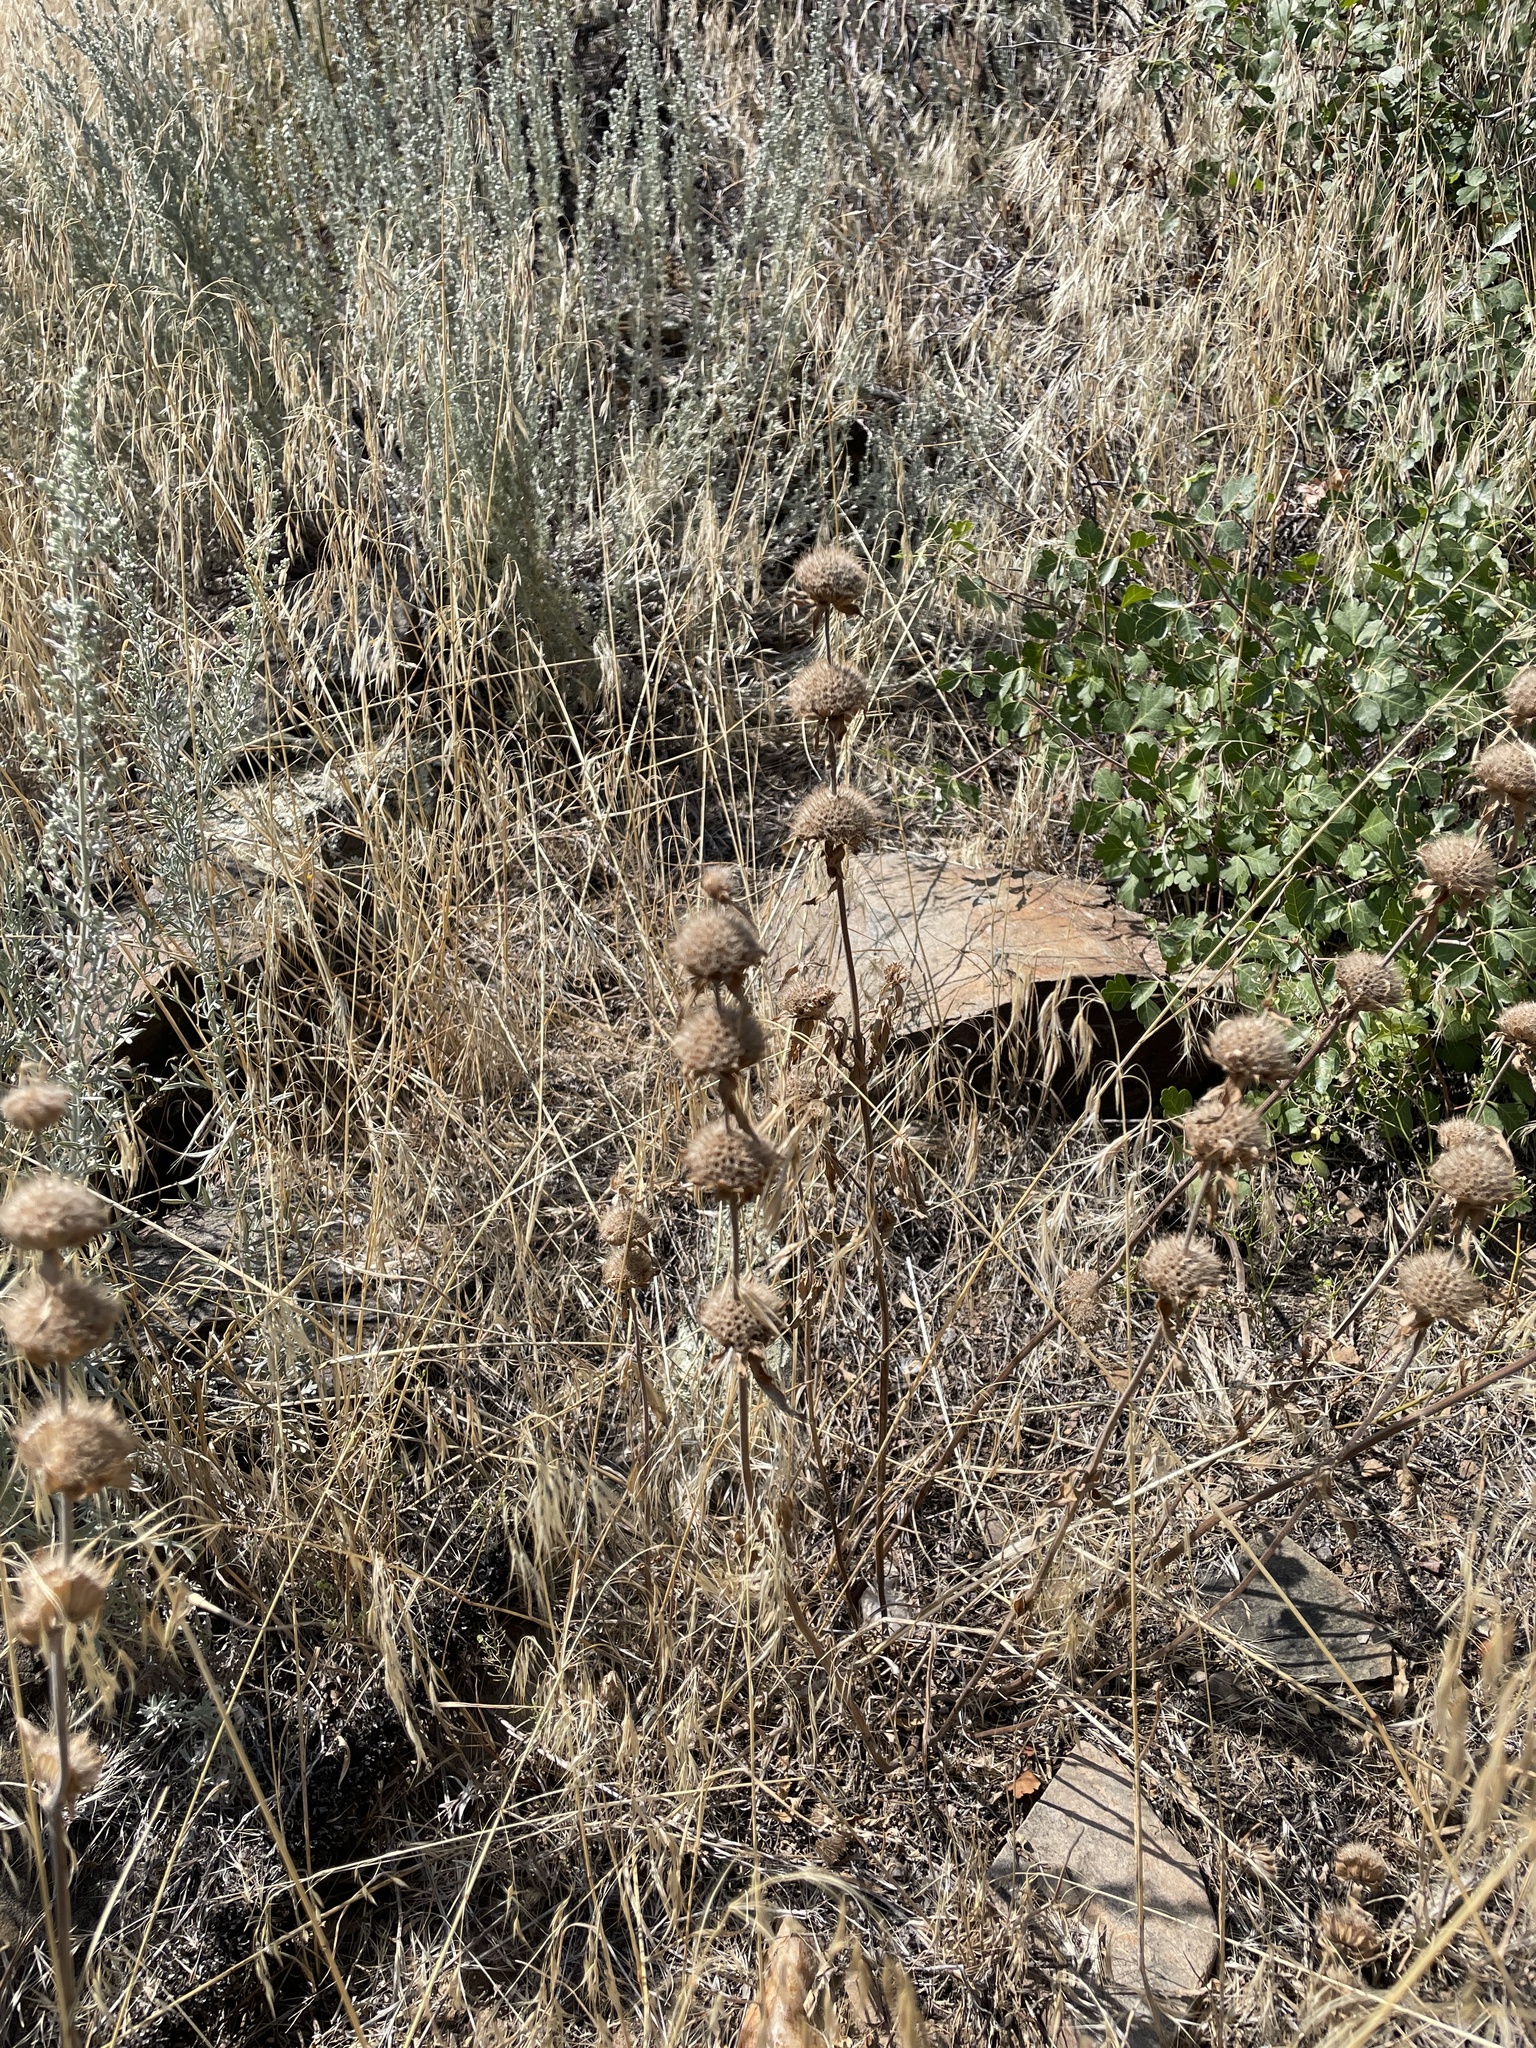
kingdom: Plantae
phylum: Tracheophyta
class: Magnoliopsida
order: Lamiales
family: Lamiaceae
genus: Monarda
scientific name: Monarda pectinata
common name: Plains beebalm
